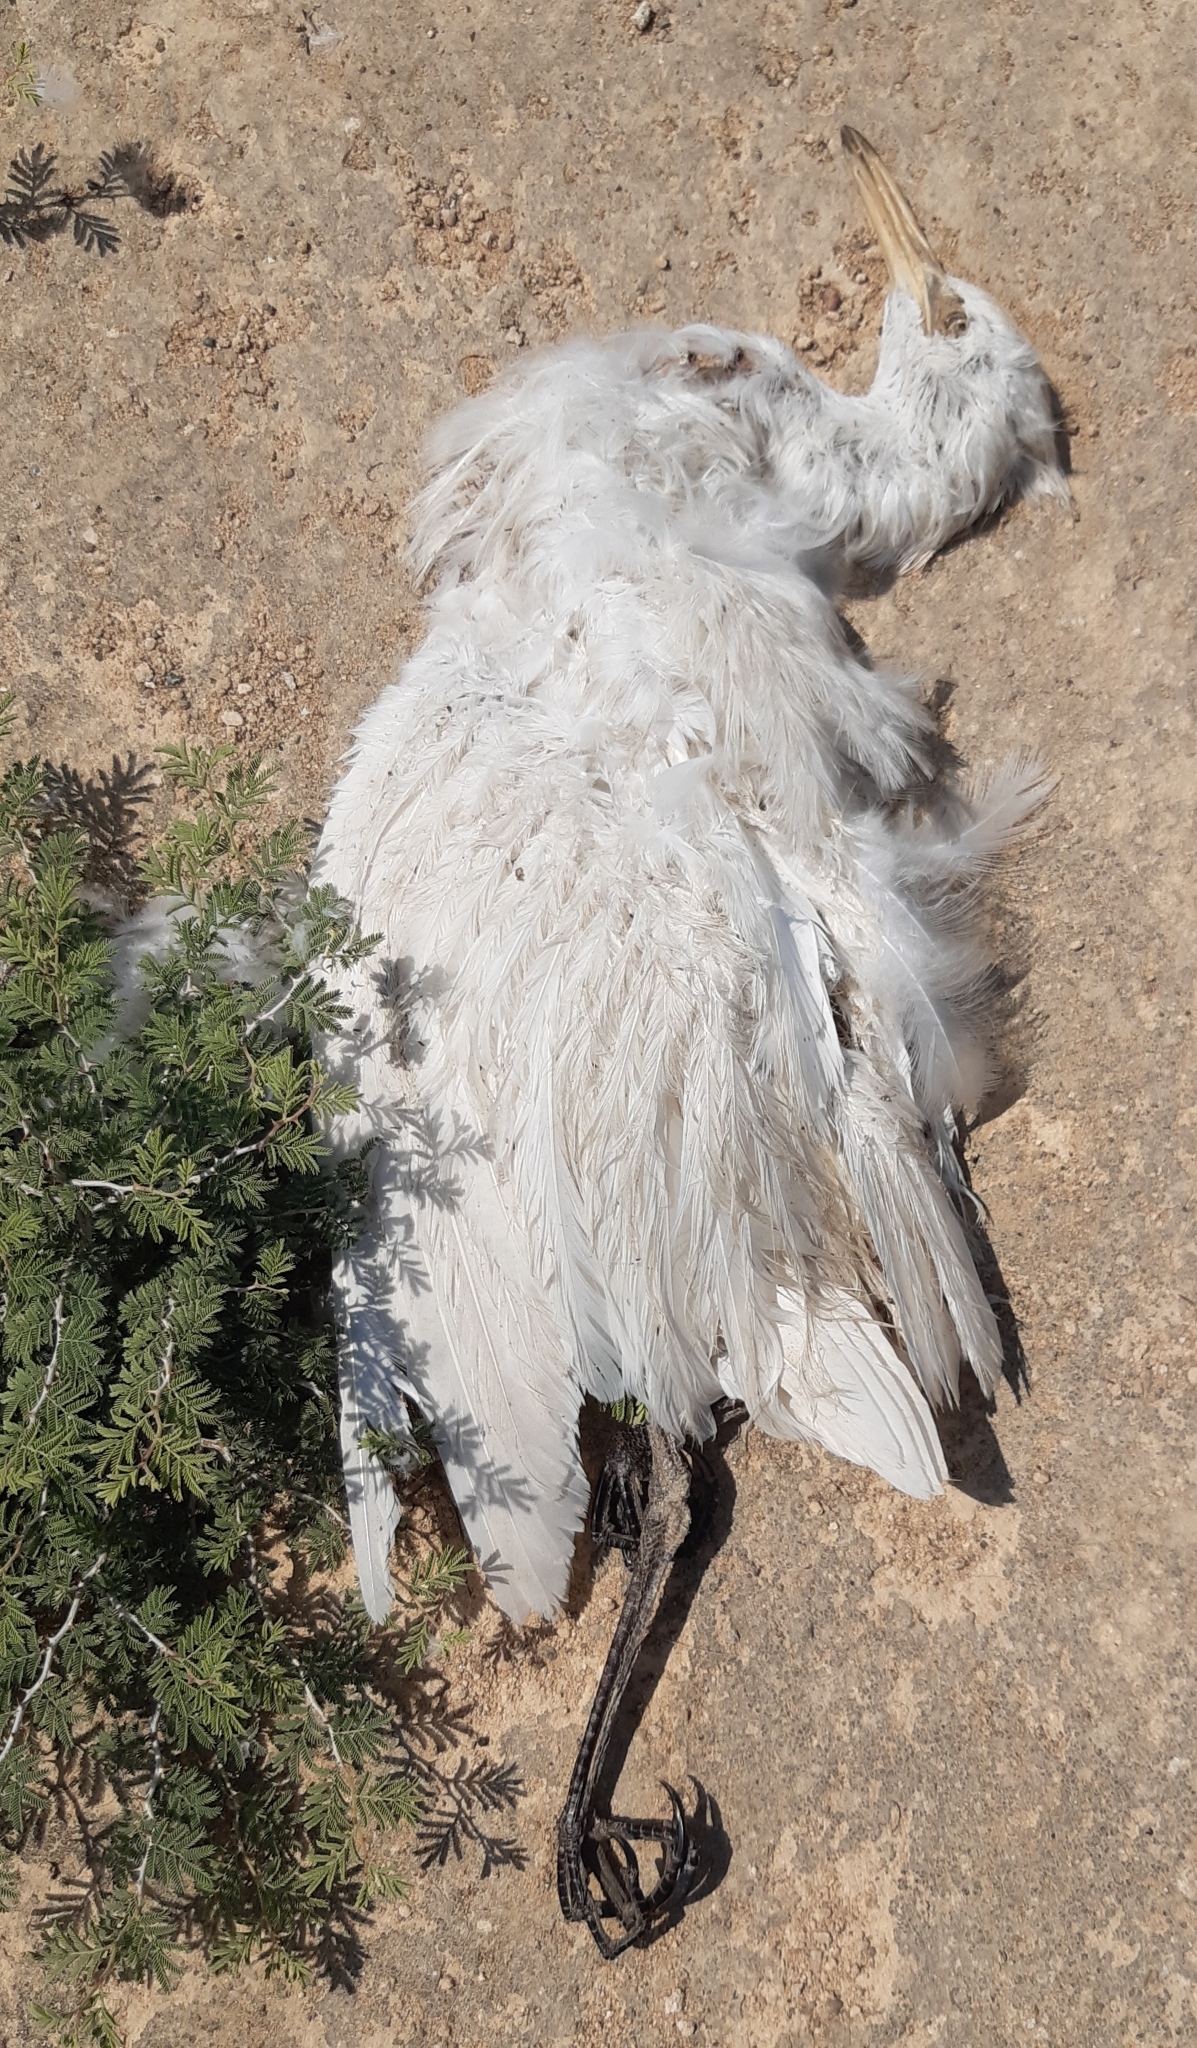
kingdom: Animalia
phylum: Chordata
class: Aves
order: Pelecaniformes
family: Ardeidae
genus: Bubulcus
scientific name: Bubulcus ibis
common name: Cattle egret
